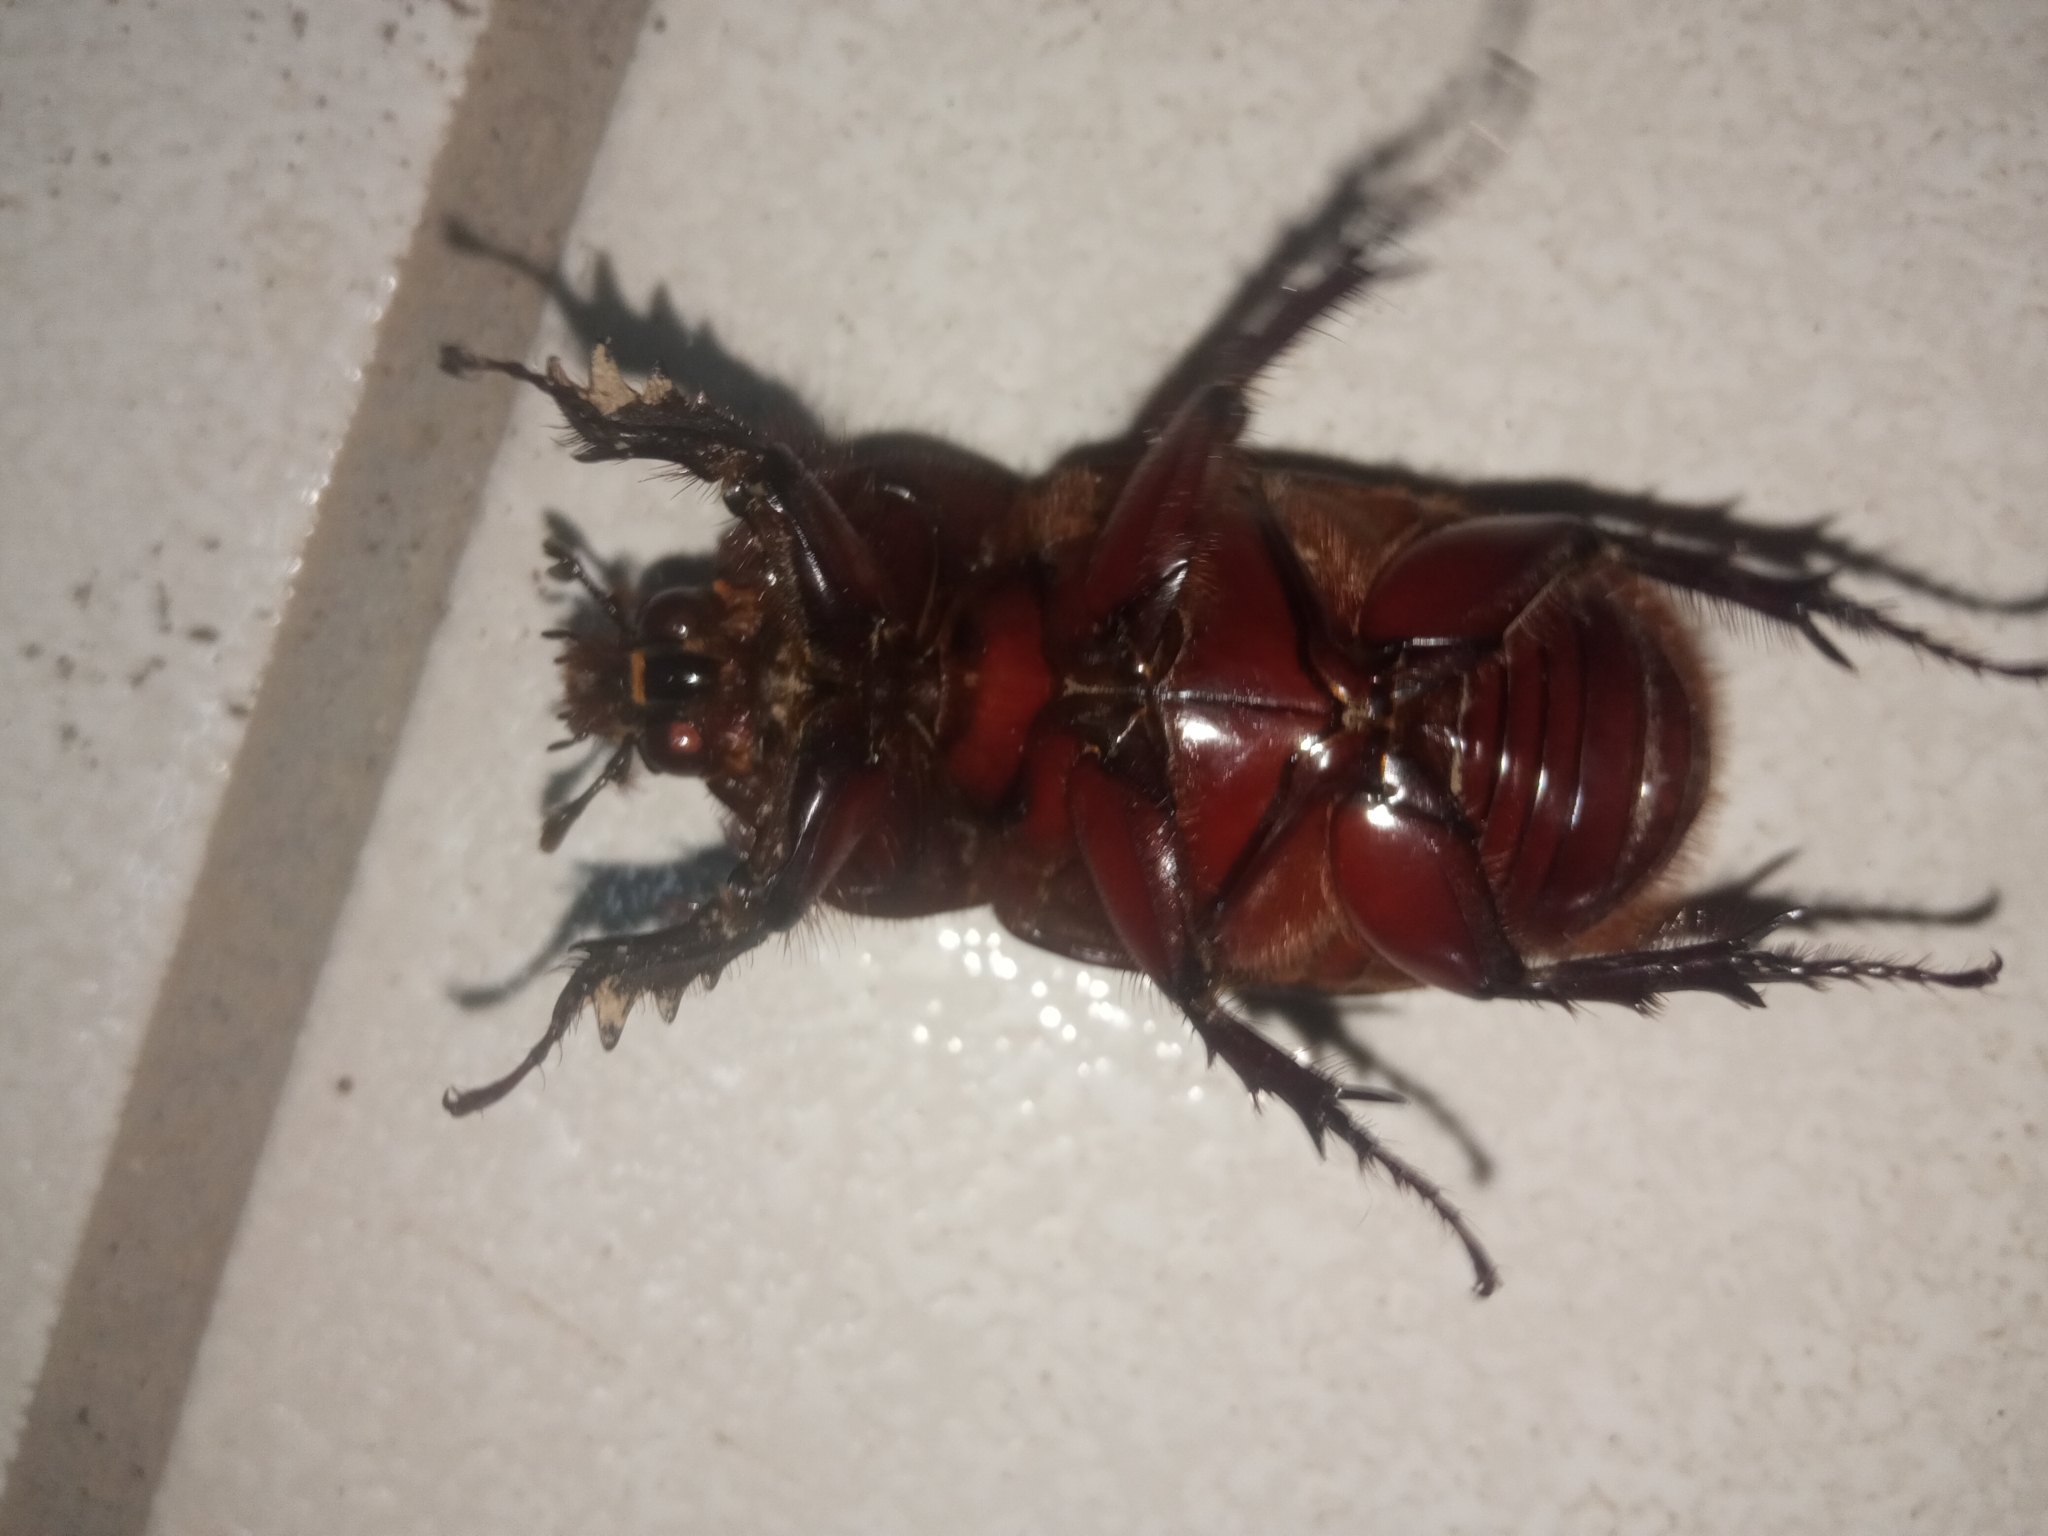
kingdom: Animalia
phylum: Arthropoda
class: Insecta
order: Coleoptera
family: Scarabaeidae
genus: Strategus
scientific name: Strategus aloeus
